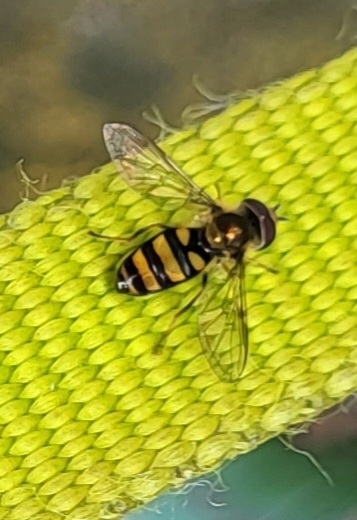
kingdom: Animalia
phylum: Arthropoda
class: Insecta
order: Diptera
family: Syrphidae
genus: Eupeodes
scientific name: Eupeodes
